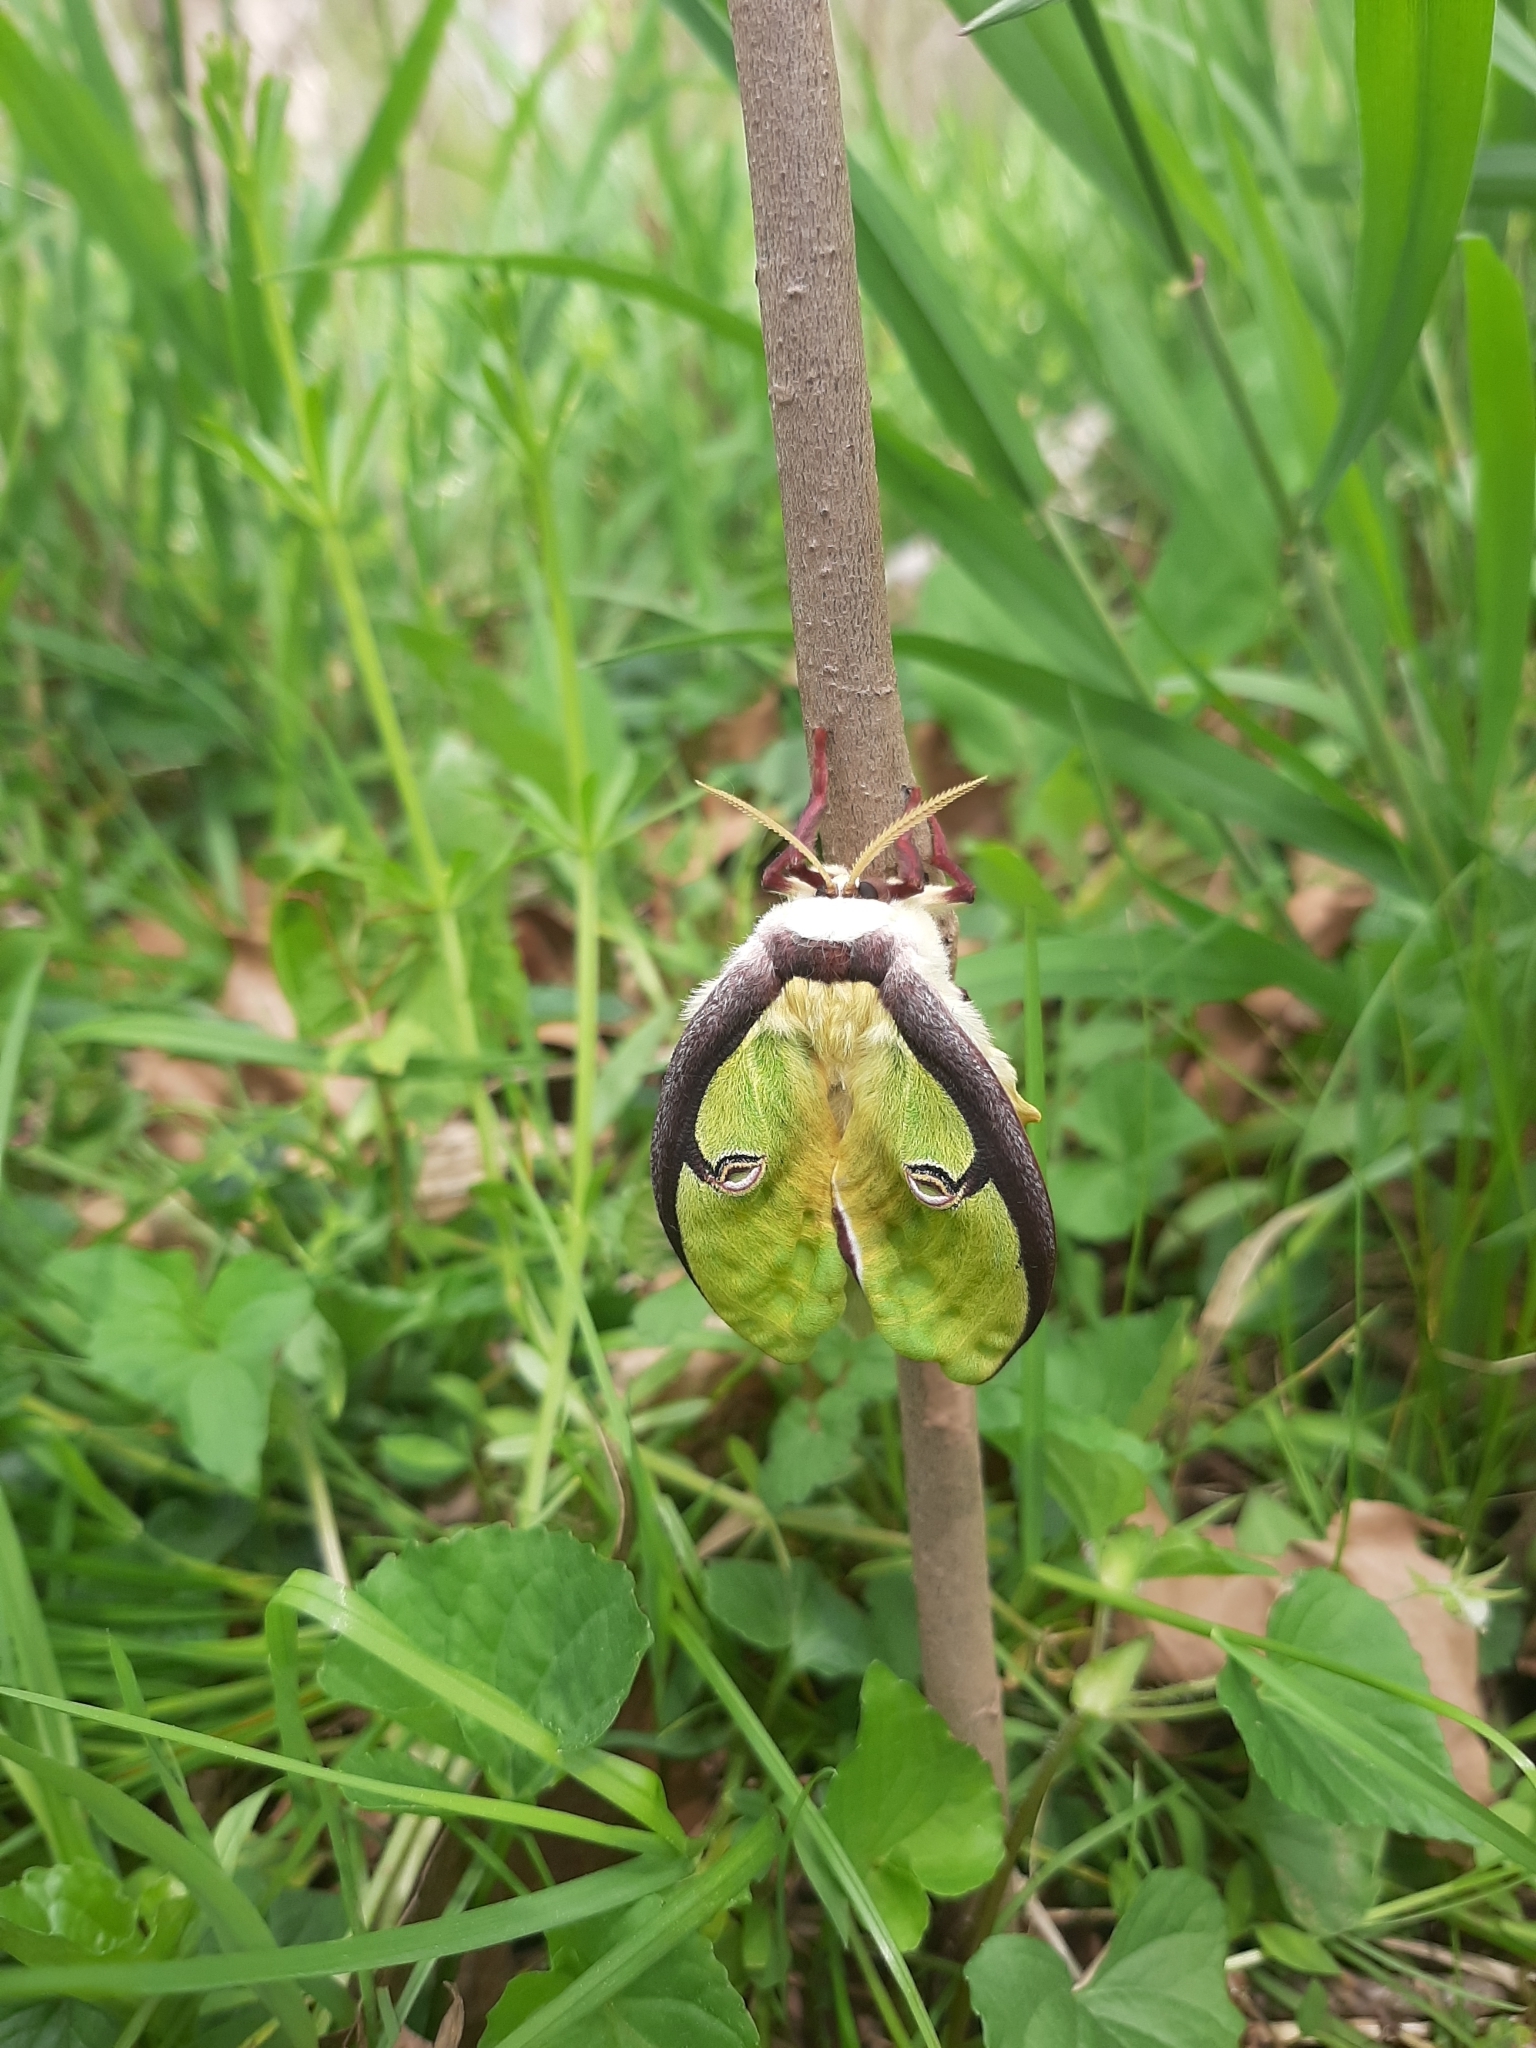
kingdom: Animalia
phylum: Arthropoda
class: Insecta
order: Lepidoptera
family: Saturniidae
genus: Actias
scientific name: Actias luna
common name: Luna moth
